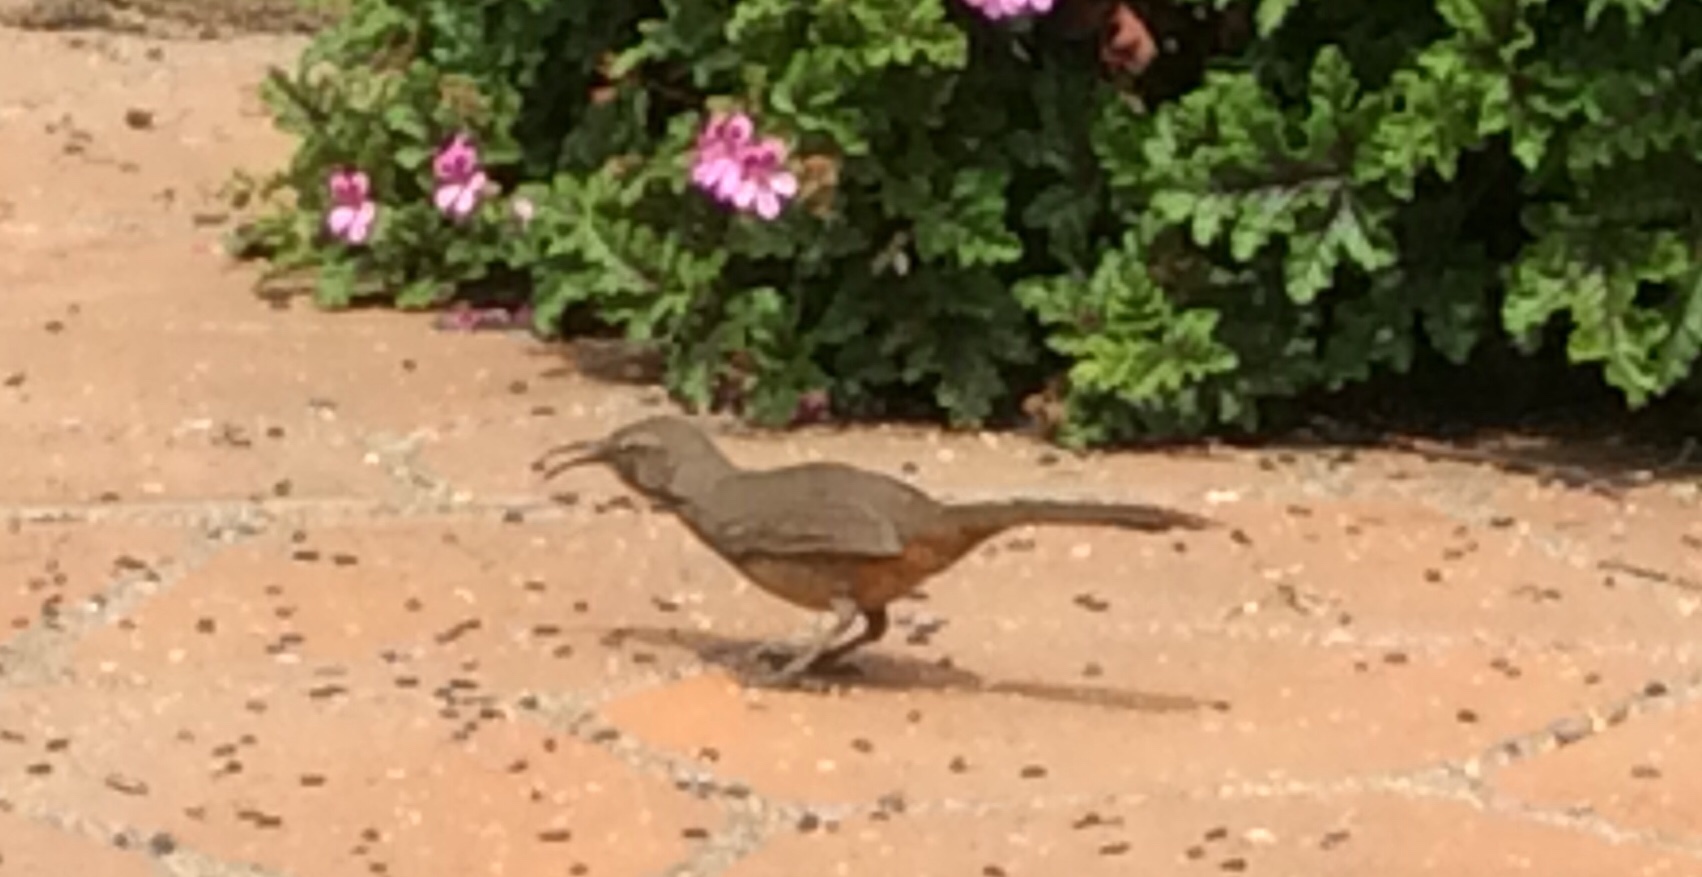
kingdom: Animalia
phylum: Chordata
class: Aves
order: Passeriformes
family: Mimidae
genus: Toxostoma
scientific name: Toxostoma redivivum
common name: California thrasher
